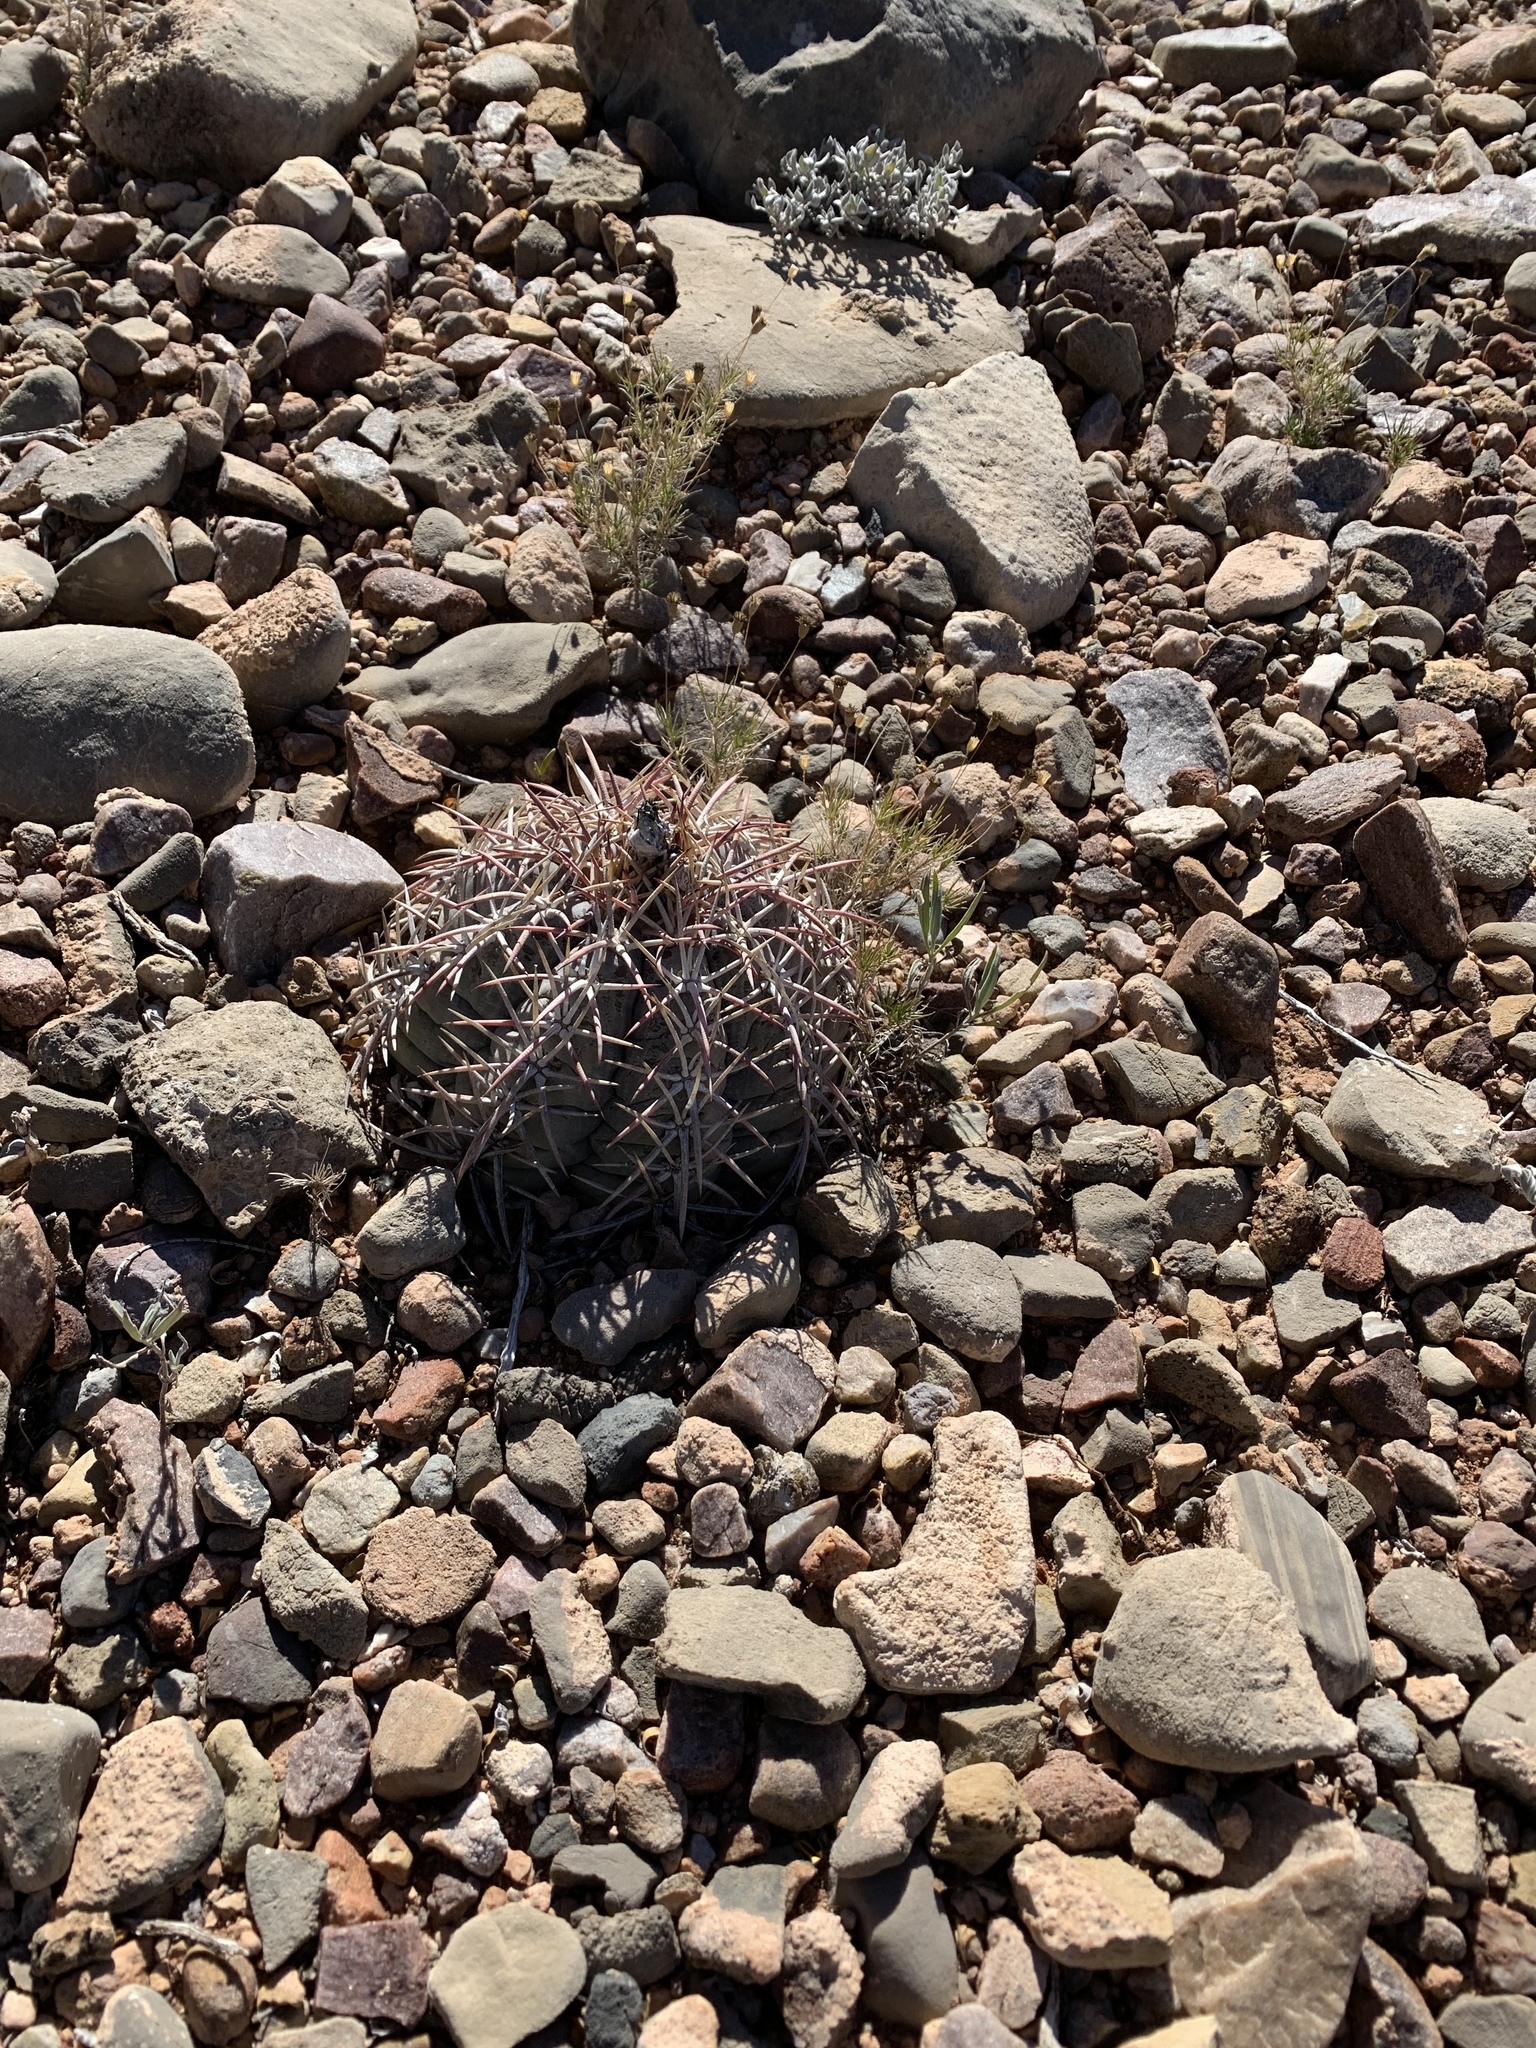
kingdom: Plantae
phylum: Tracheophyta
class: Magnoliopsida
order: Caryophyllales
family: Cactaceae
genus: Echinocactus
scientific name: Echinocactus horizonthalonius
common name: Devilshead
